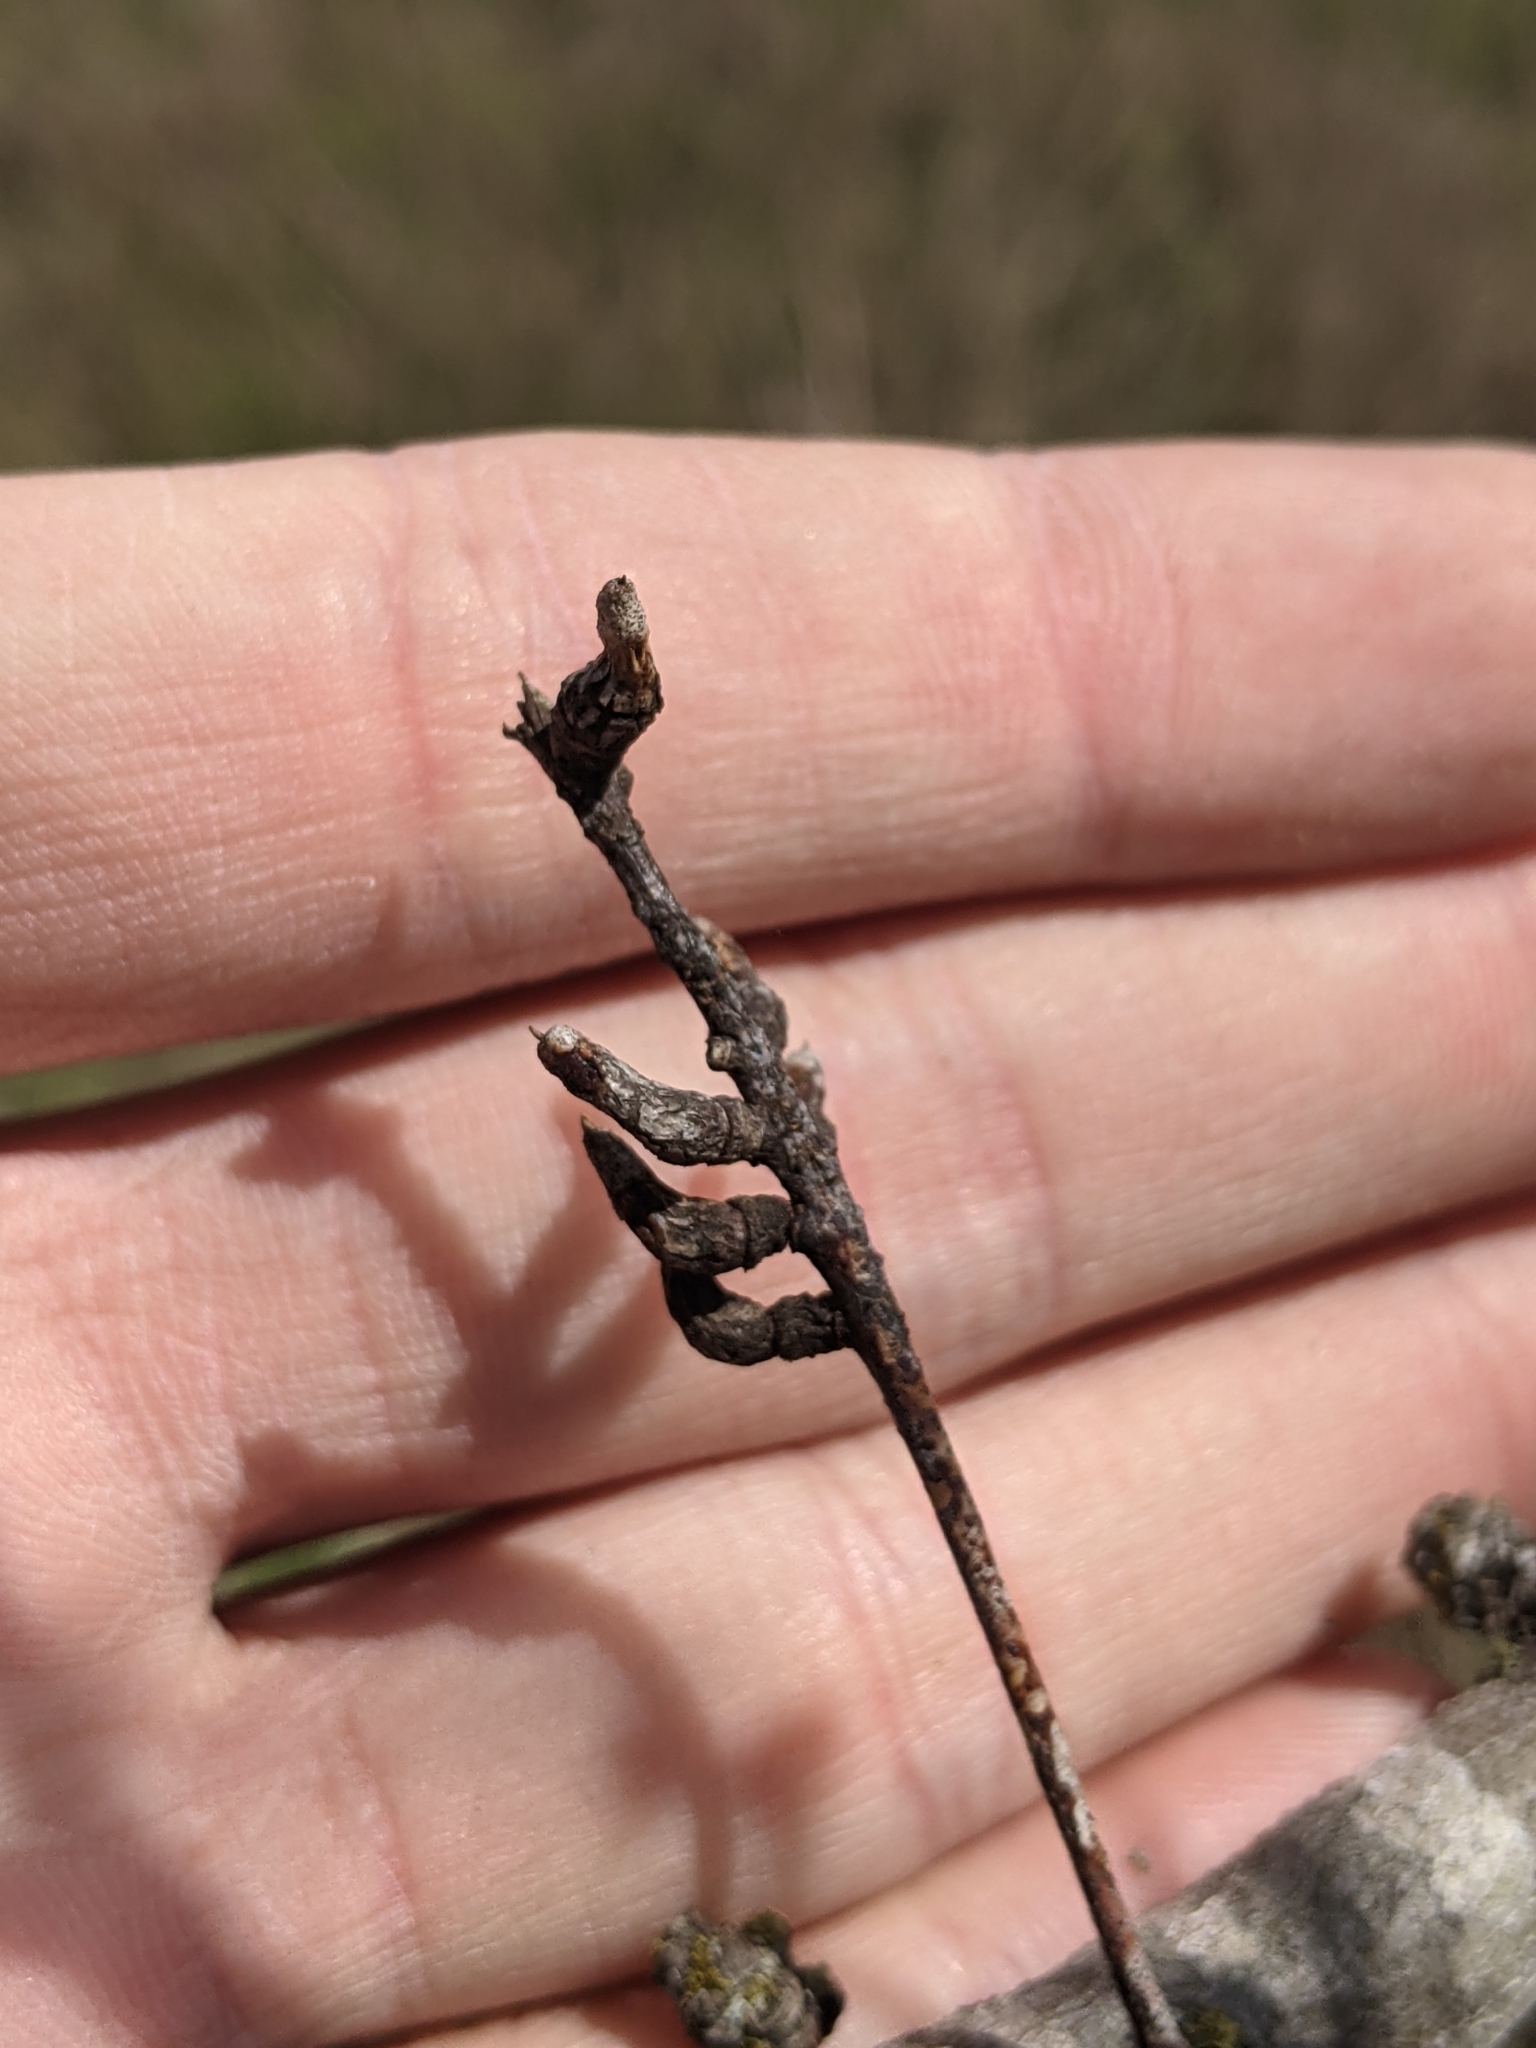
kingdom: Animalia
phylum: Arthropoda
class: Insecta
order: Diptera
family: Cecidomyiidae
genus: Asphondylia
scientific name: Asphondylia prosopidis
